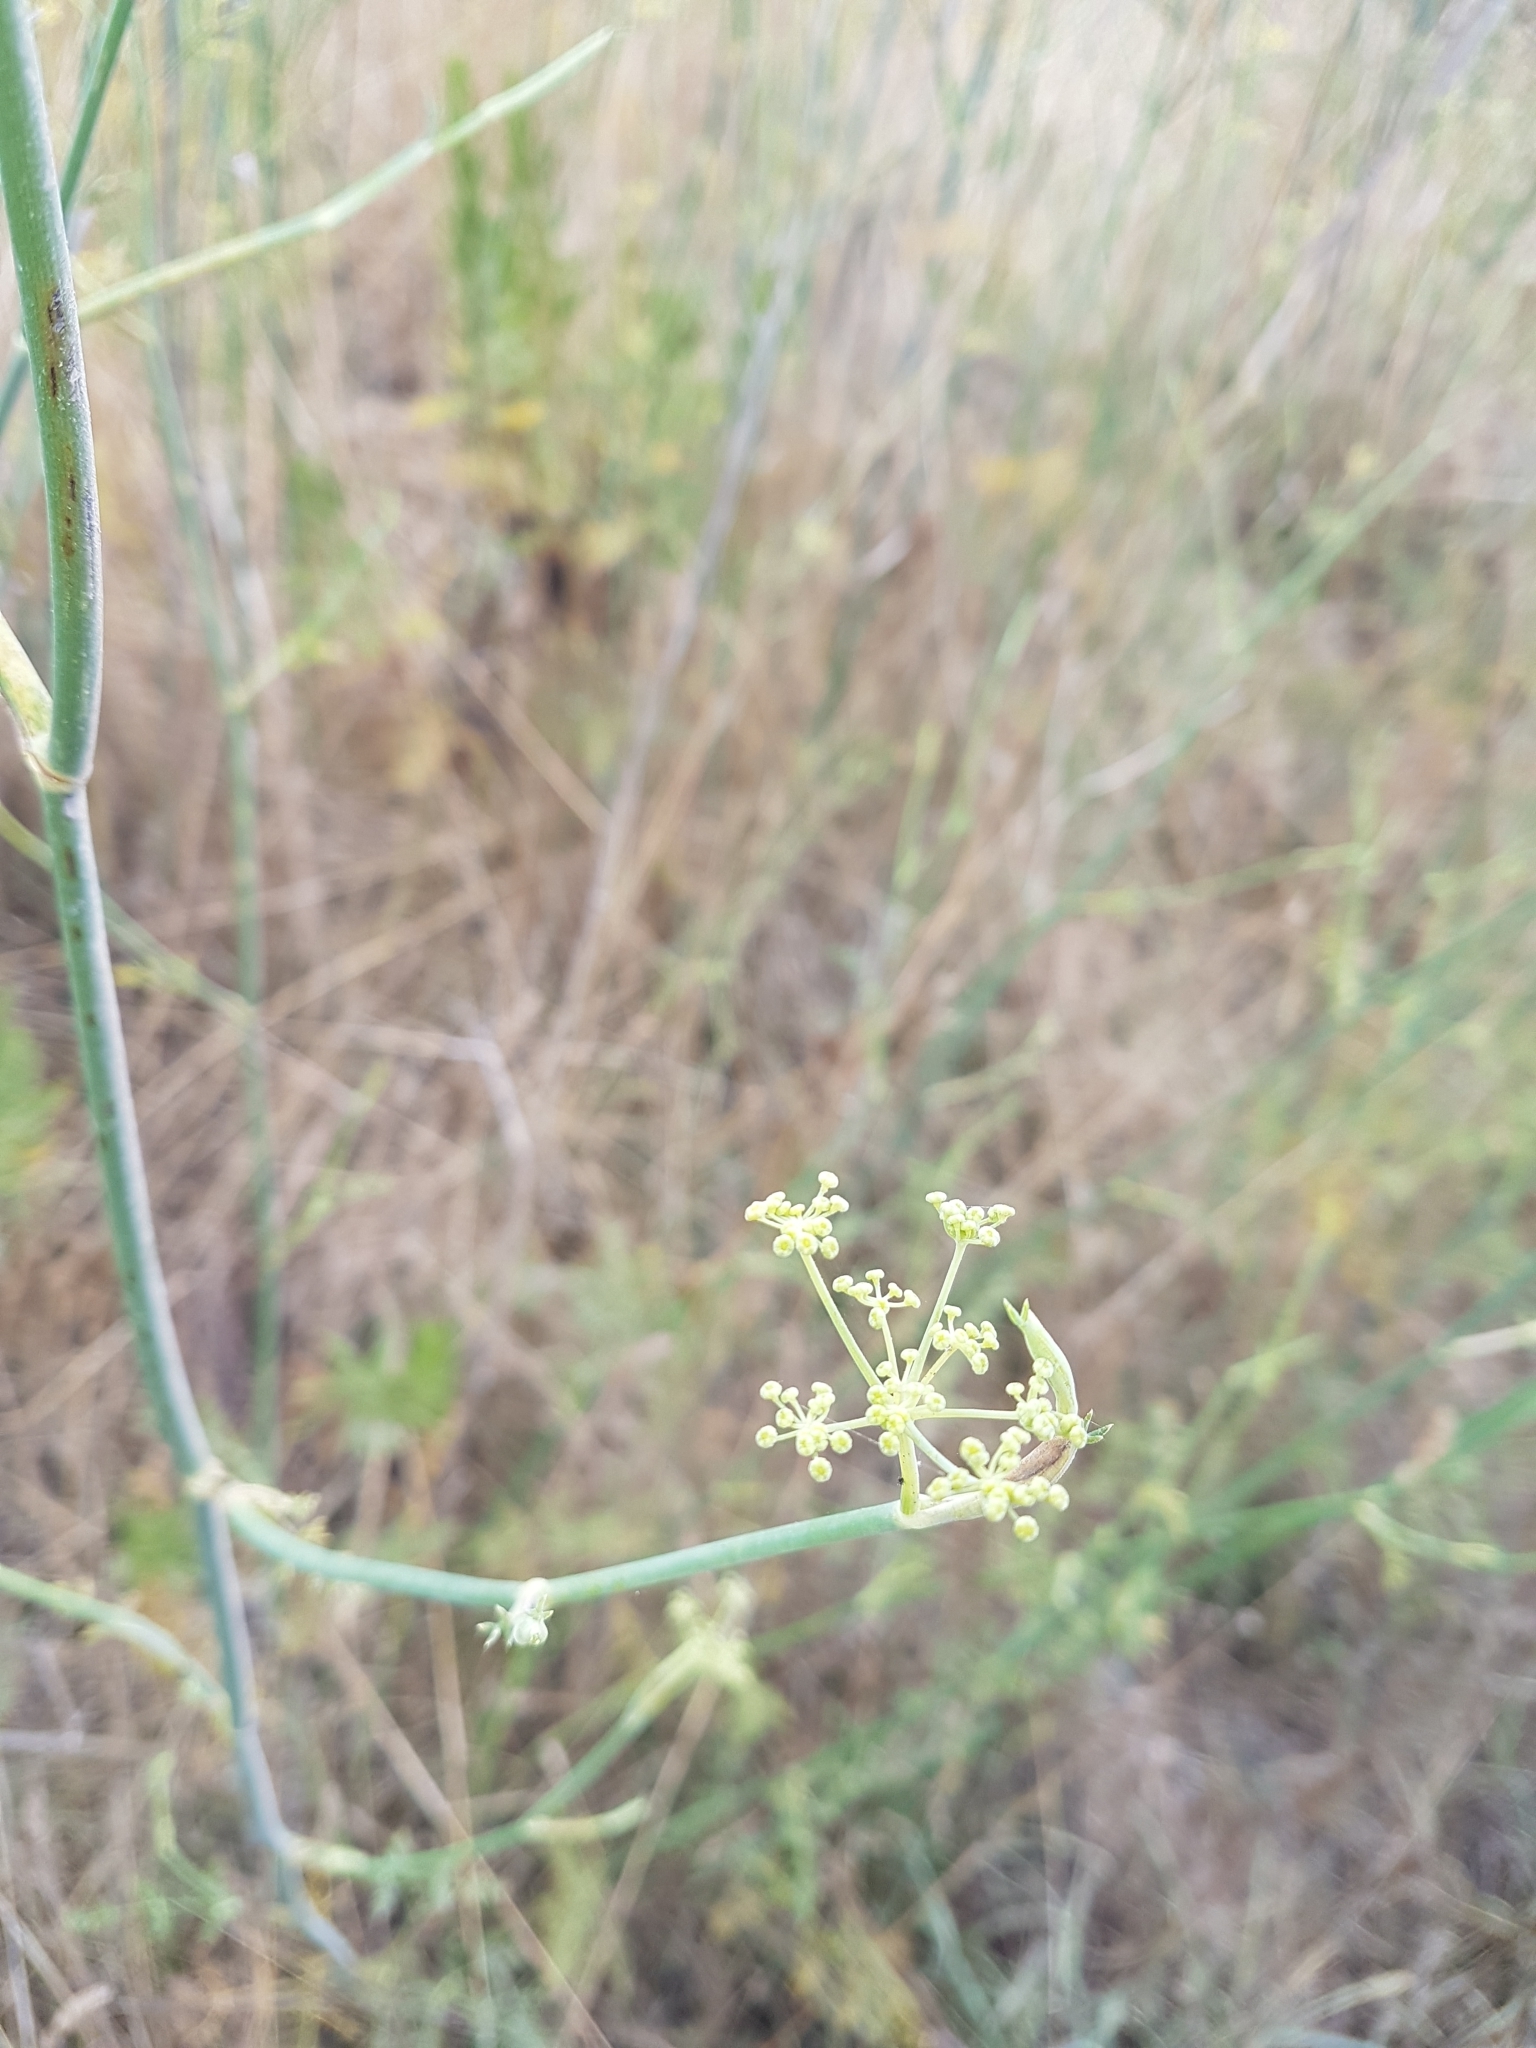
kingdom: Plantae
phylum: Tracheophyta
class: Magnoliopsida
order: Apiales
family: Apiaceae
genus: Foeniculum
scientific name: Foeniculum vulgare
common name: Fennel
